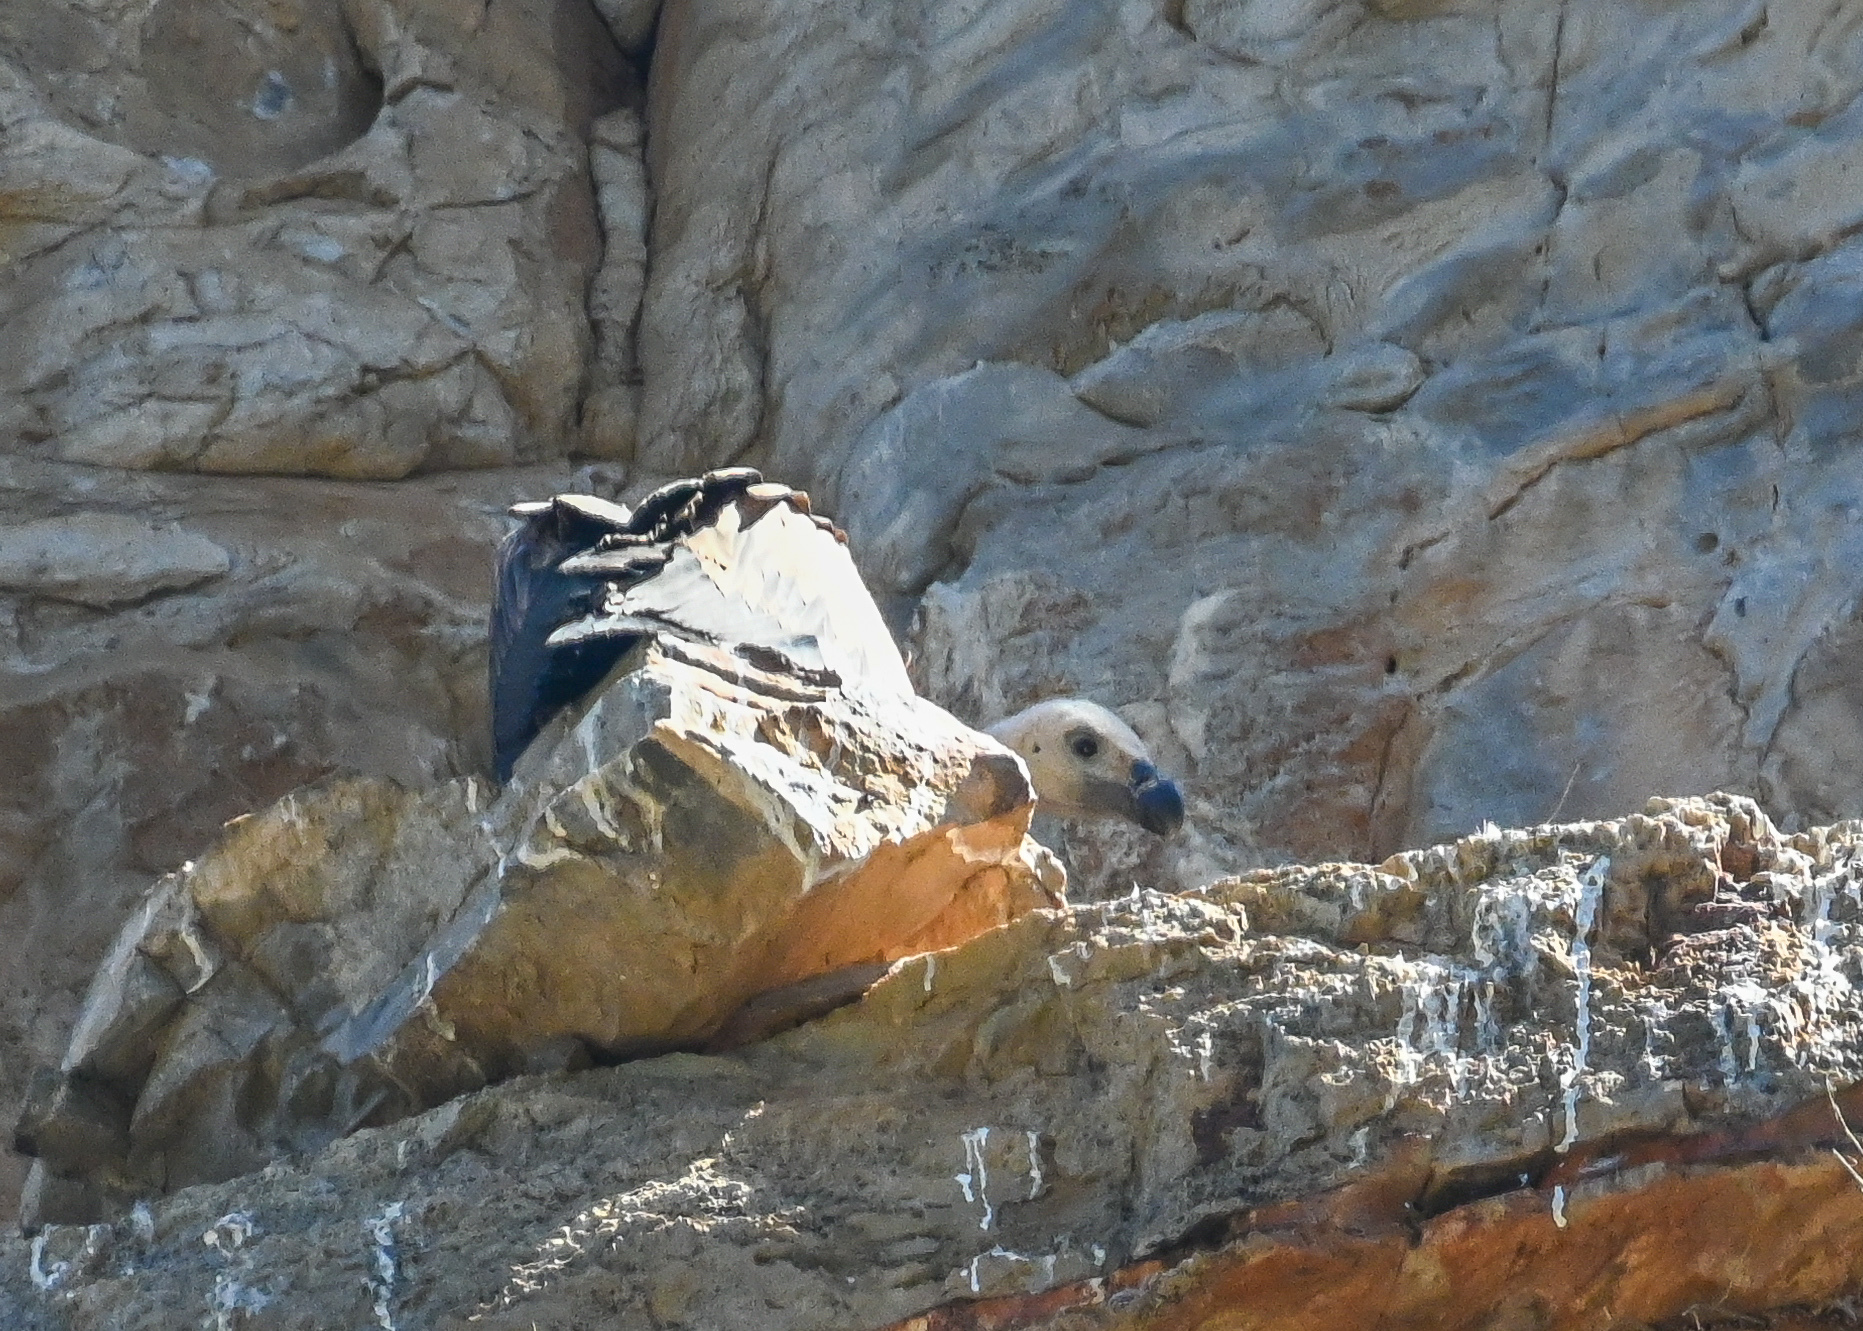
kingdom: Animalia
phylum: Chordata
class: Aves
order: Accipitriformes
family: Accipitridae
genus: Gyps
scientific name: Gyps fulvus
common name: Griffon vulture
